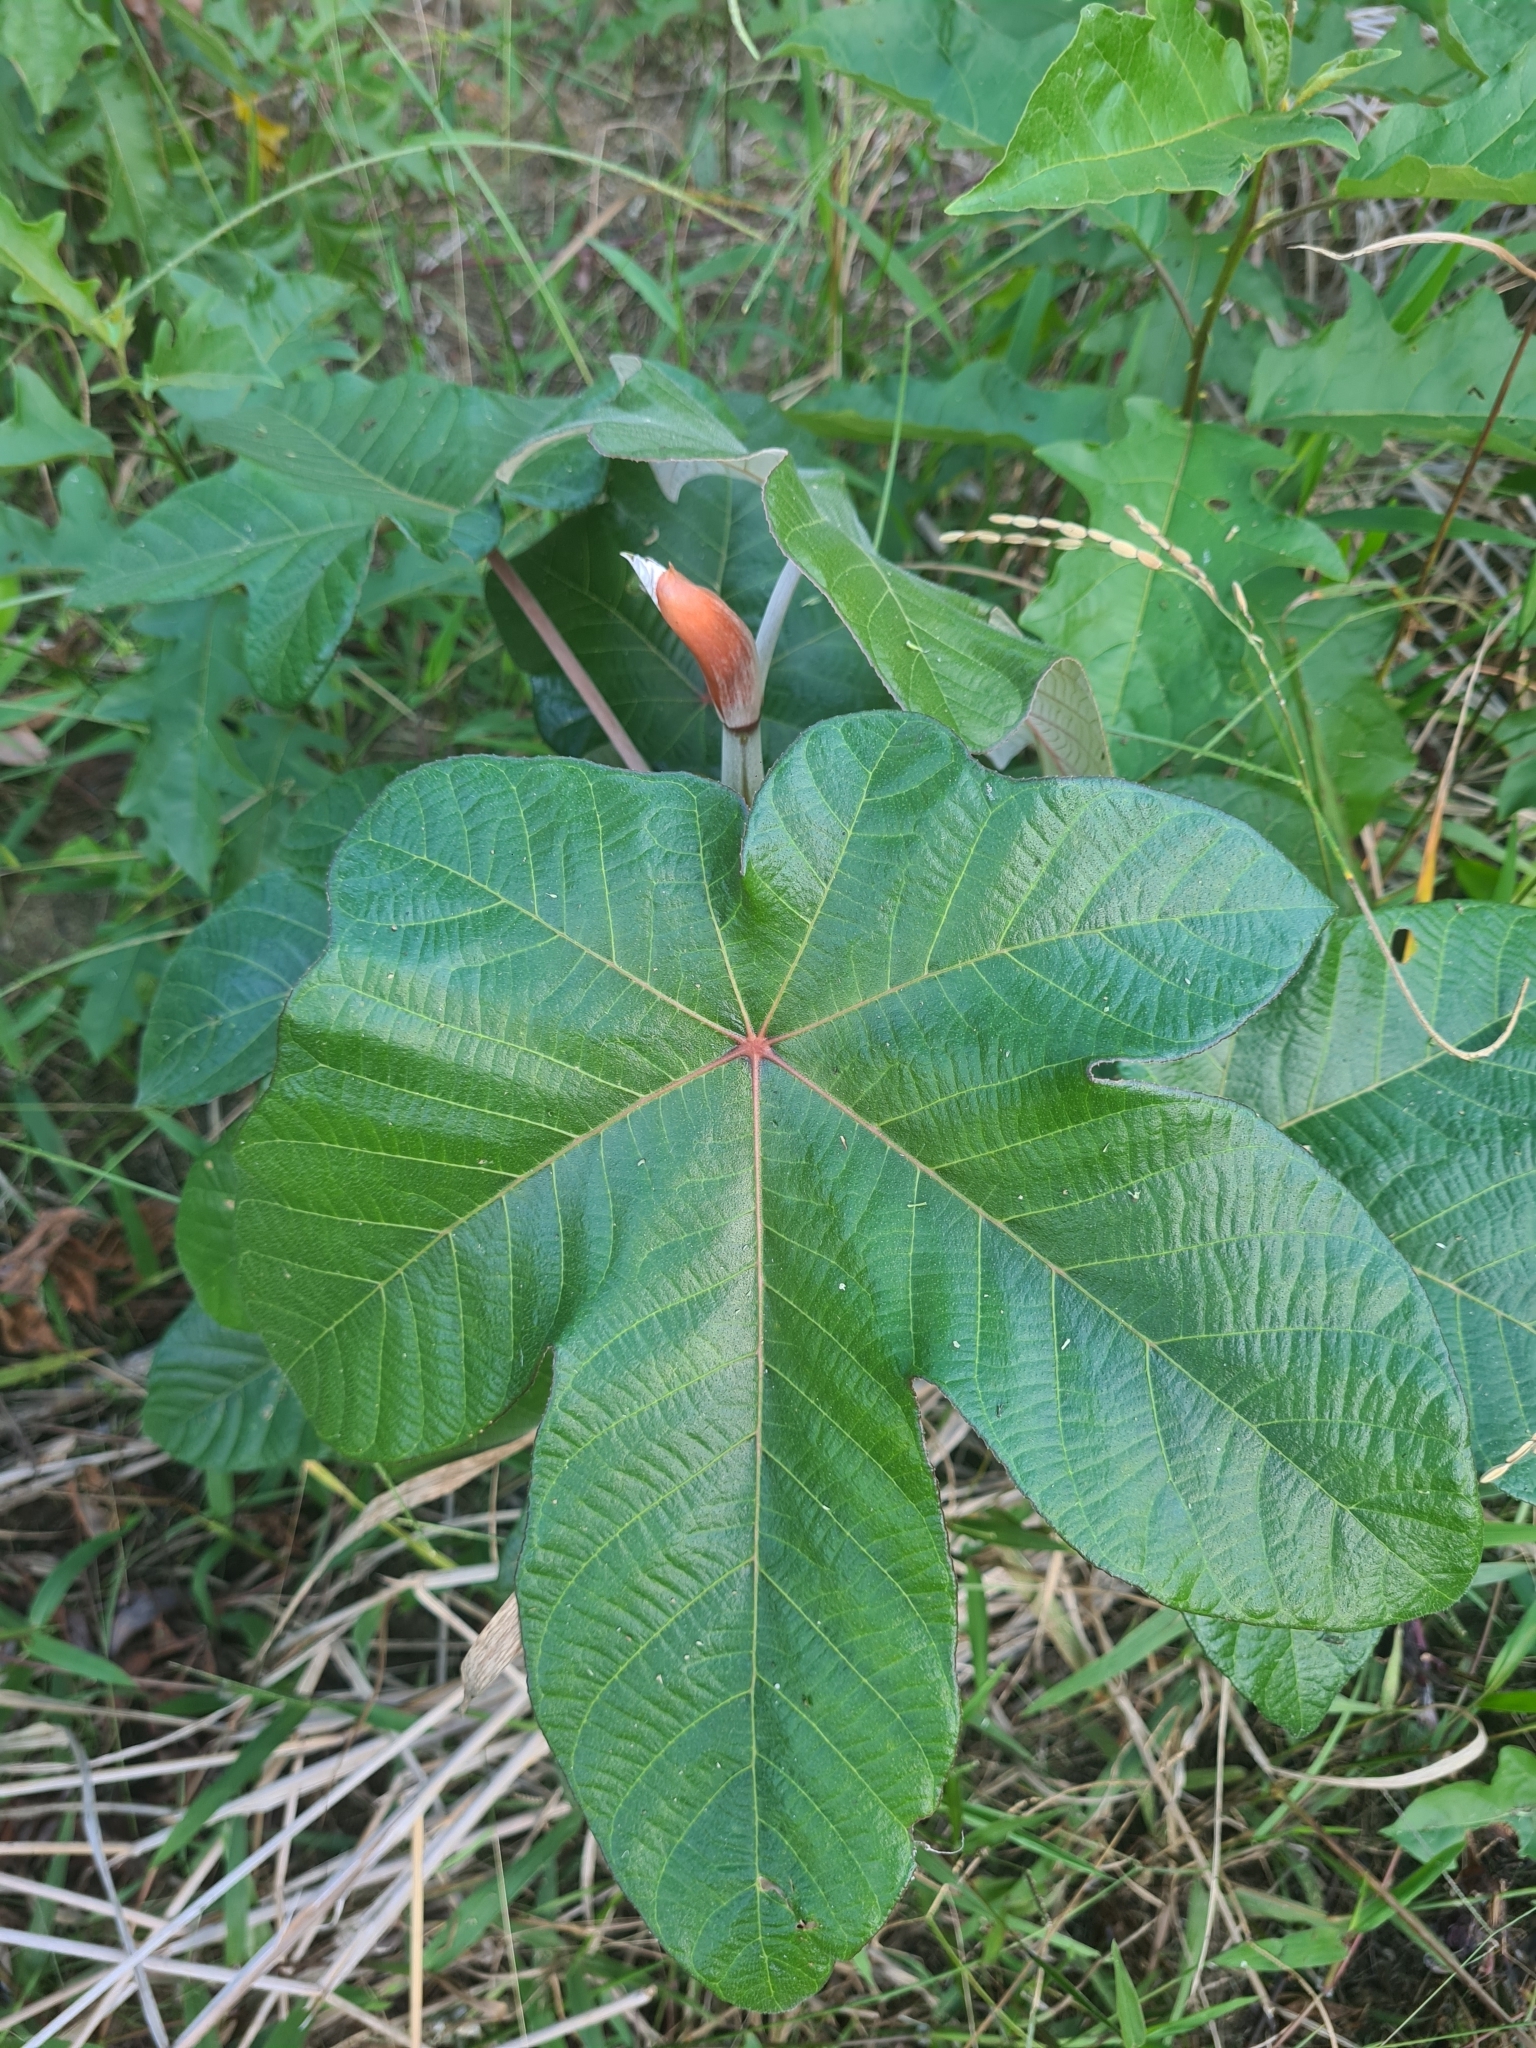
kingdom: Plantae
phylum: Tracheophyta
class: Magnoliopsida
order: Rosales
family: Urticaceae
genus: Cecropia
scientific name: Cecropia obtusa
